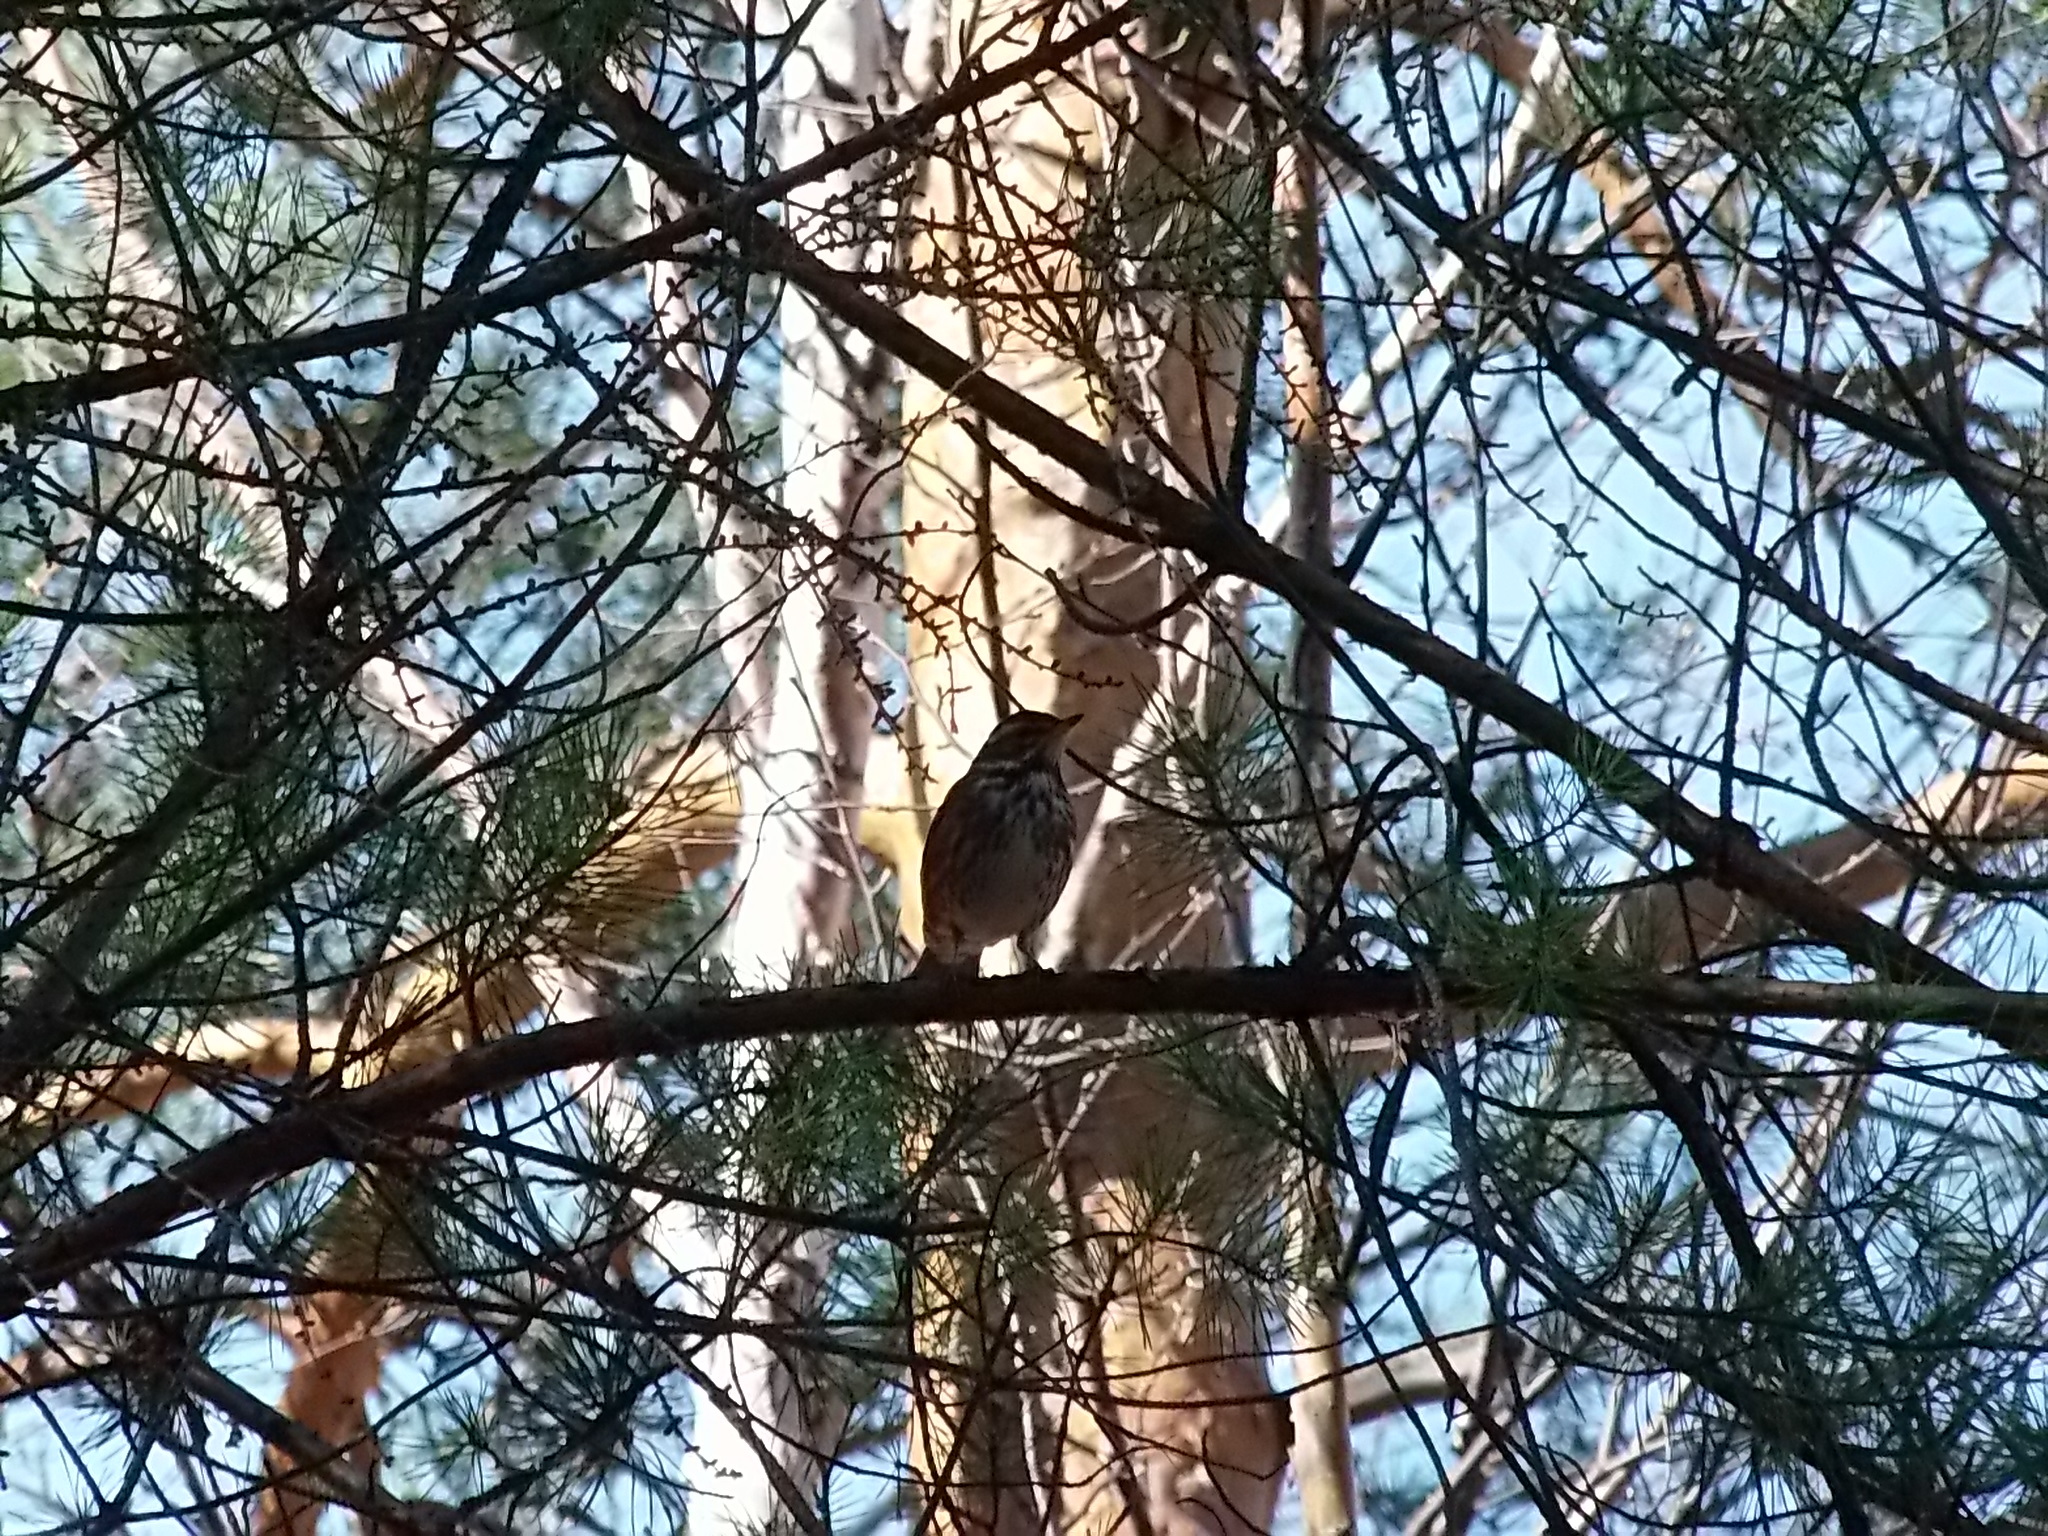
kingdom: Animalia
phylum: Chordata
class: Aves
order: Passeriformes
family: Turdidae
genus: Turdus
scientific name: Turdus iliacus
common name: Redwing
